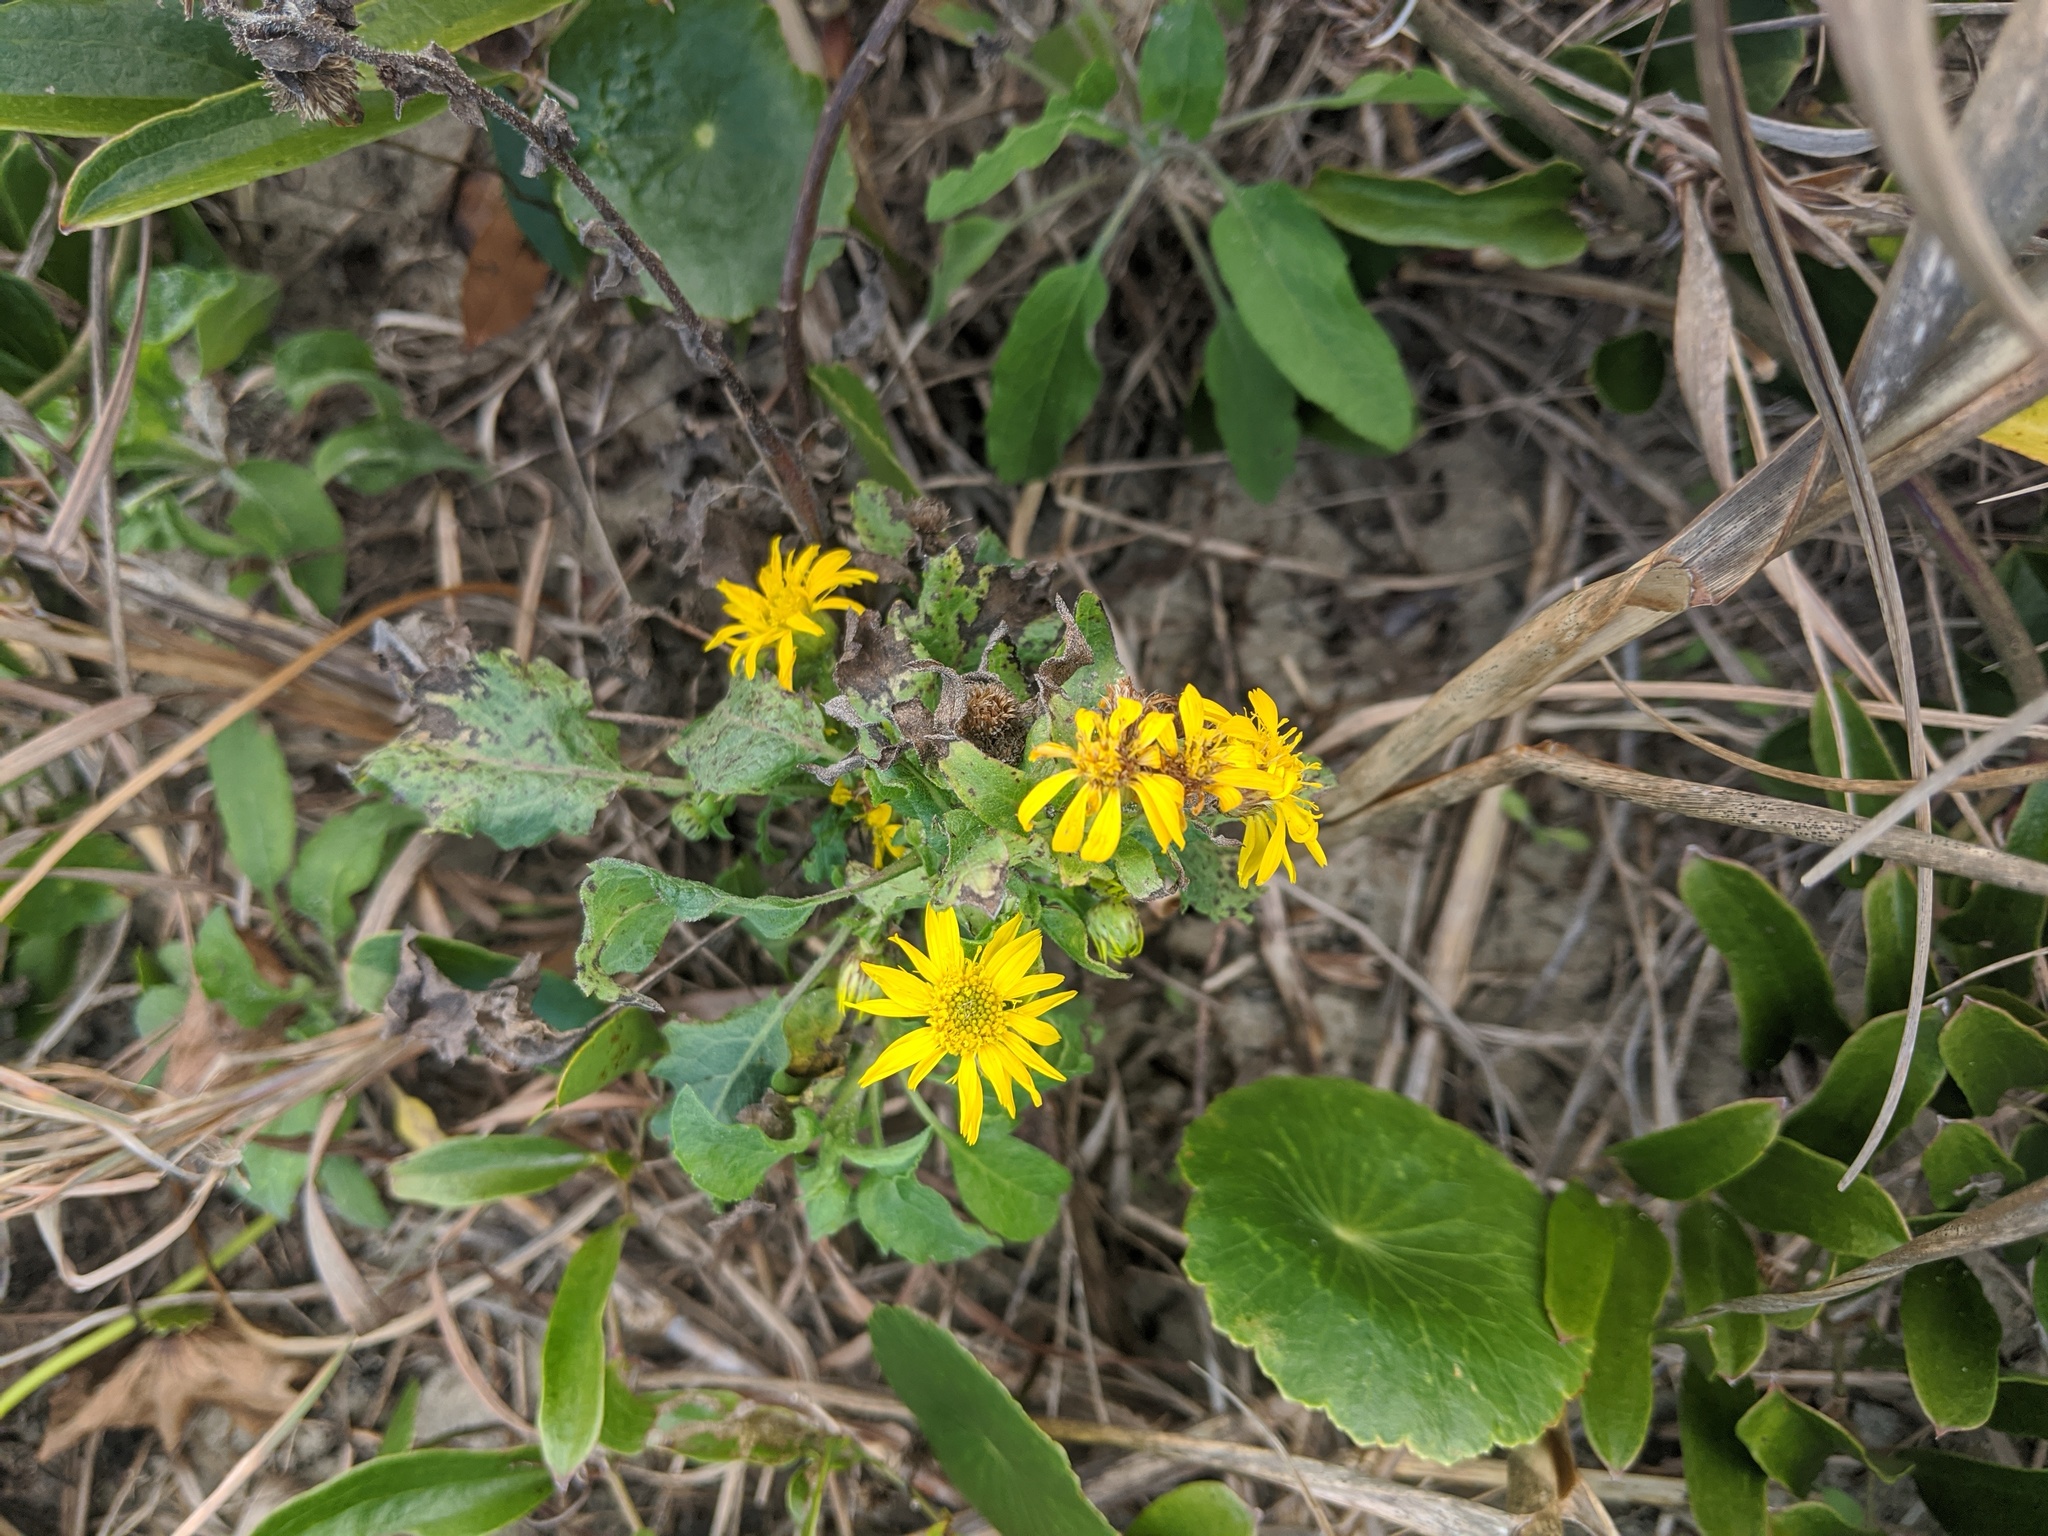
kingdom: Plantae
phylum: Tracheophyta
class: Magnoliopsida
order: Asterales
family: Asteraceae
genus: Heterotheca
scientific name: Heterotheca subaxillaris
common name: Camphorweed
